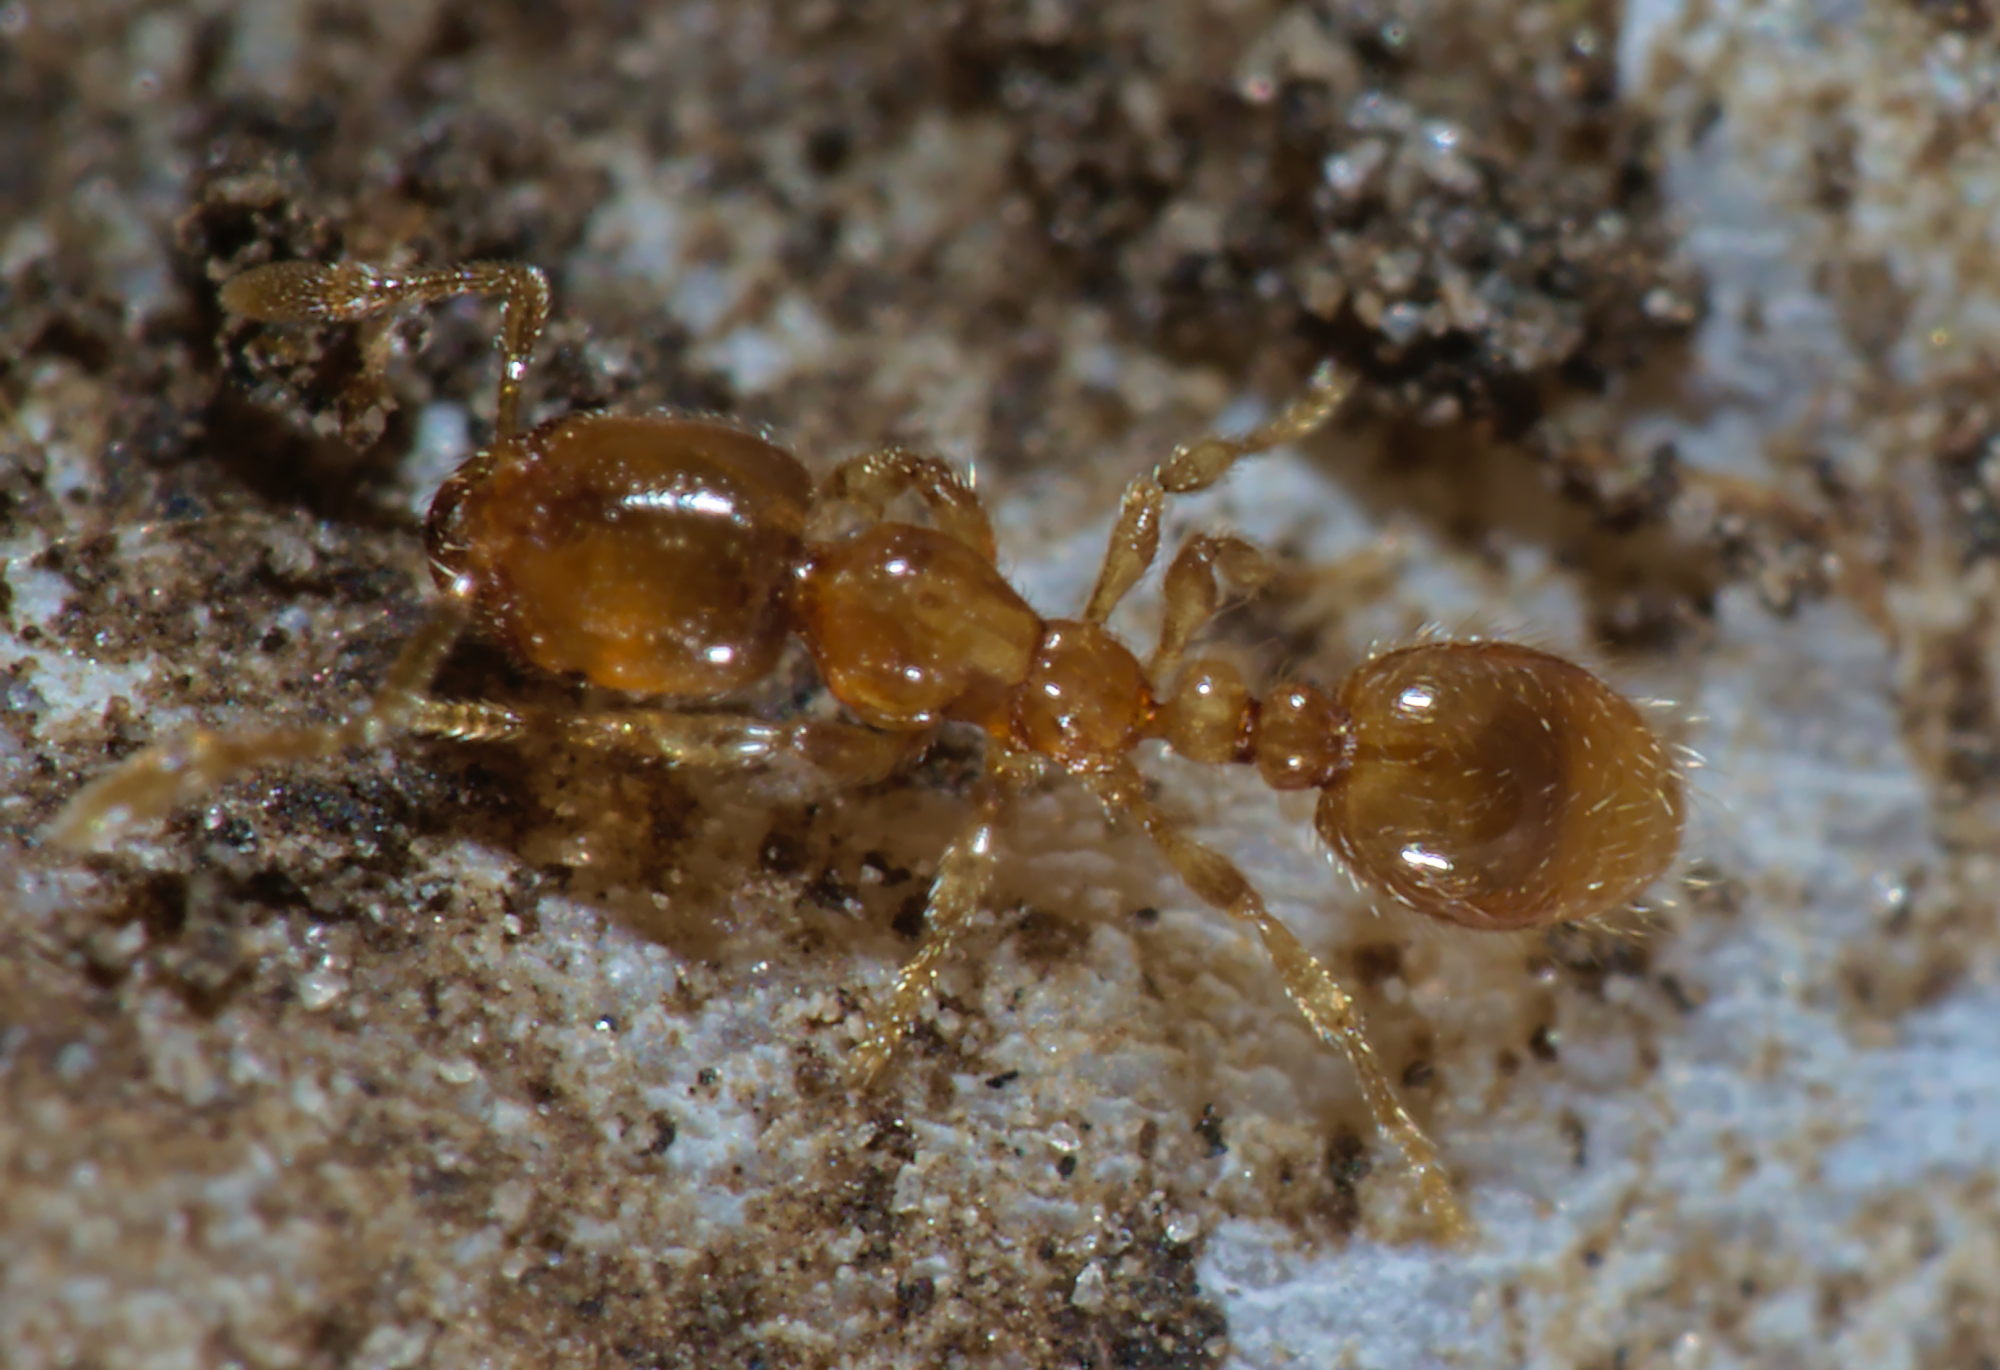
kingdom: Animalia
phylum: Arthropoda
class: Insecta
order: Hymenoptera
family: Formicidae
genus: Solenopsis
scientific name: Solenopsis fugax
